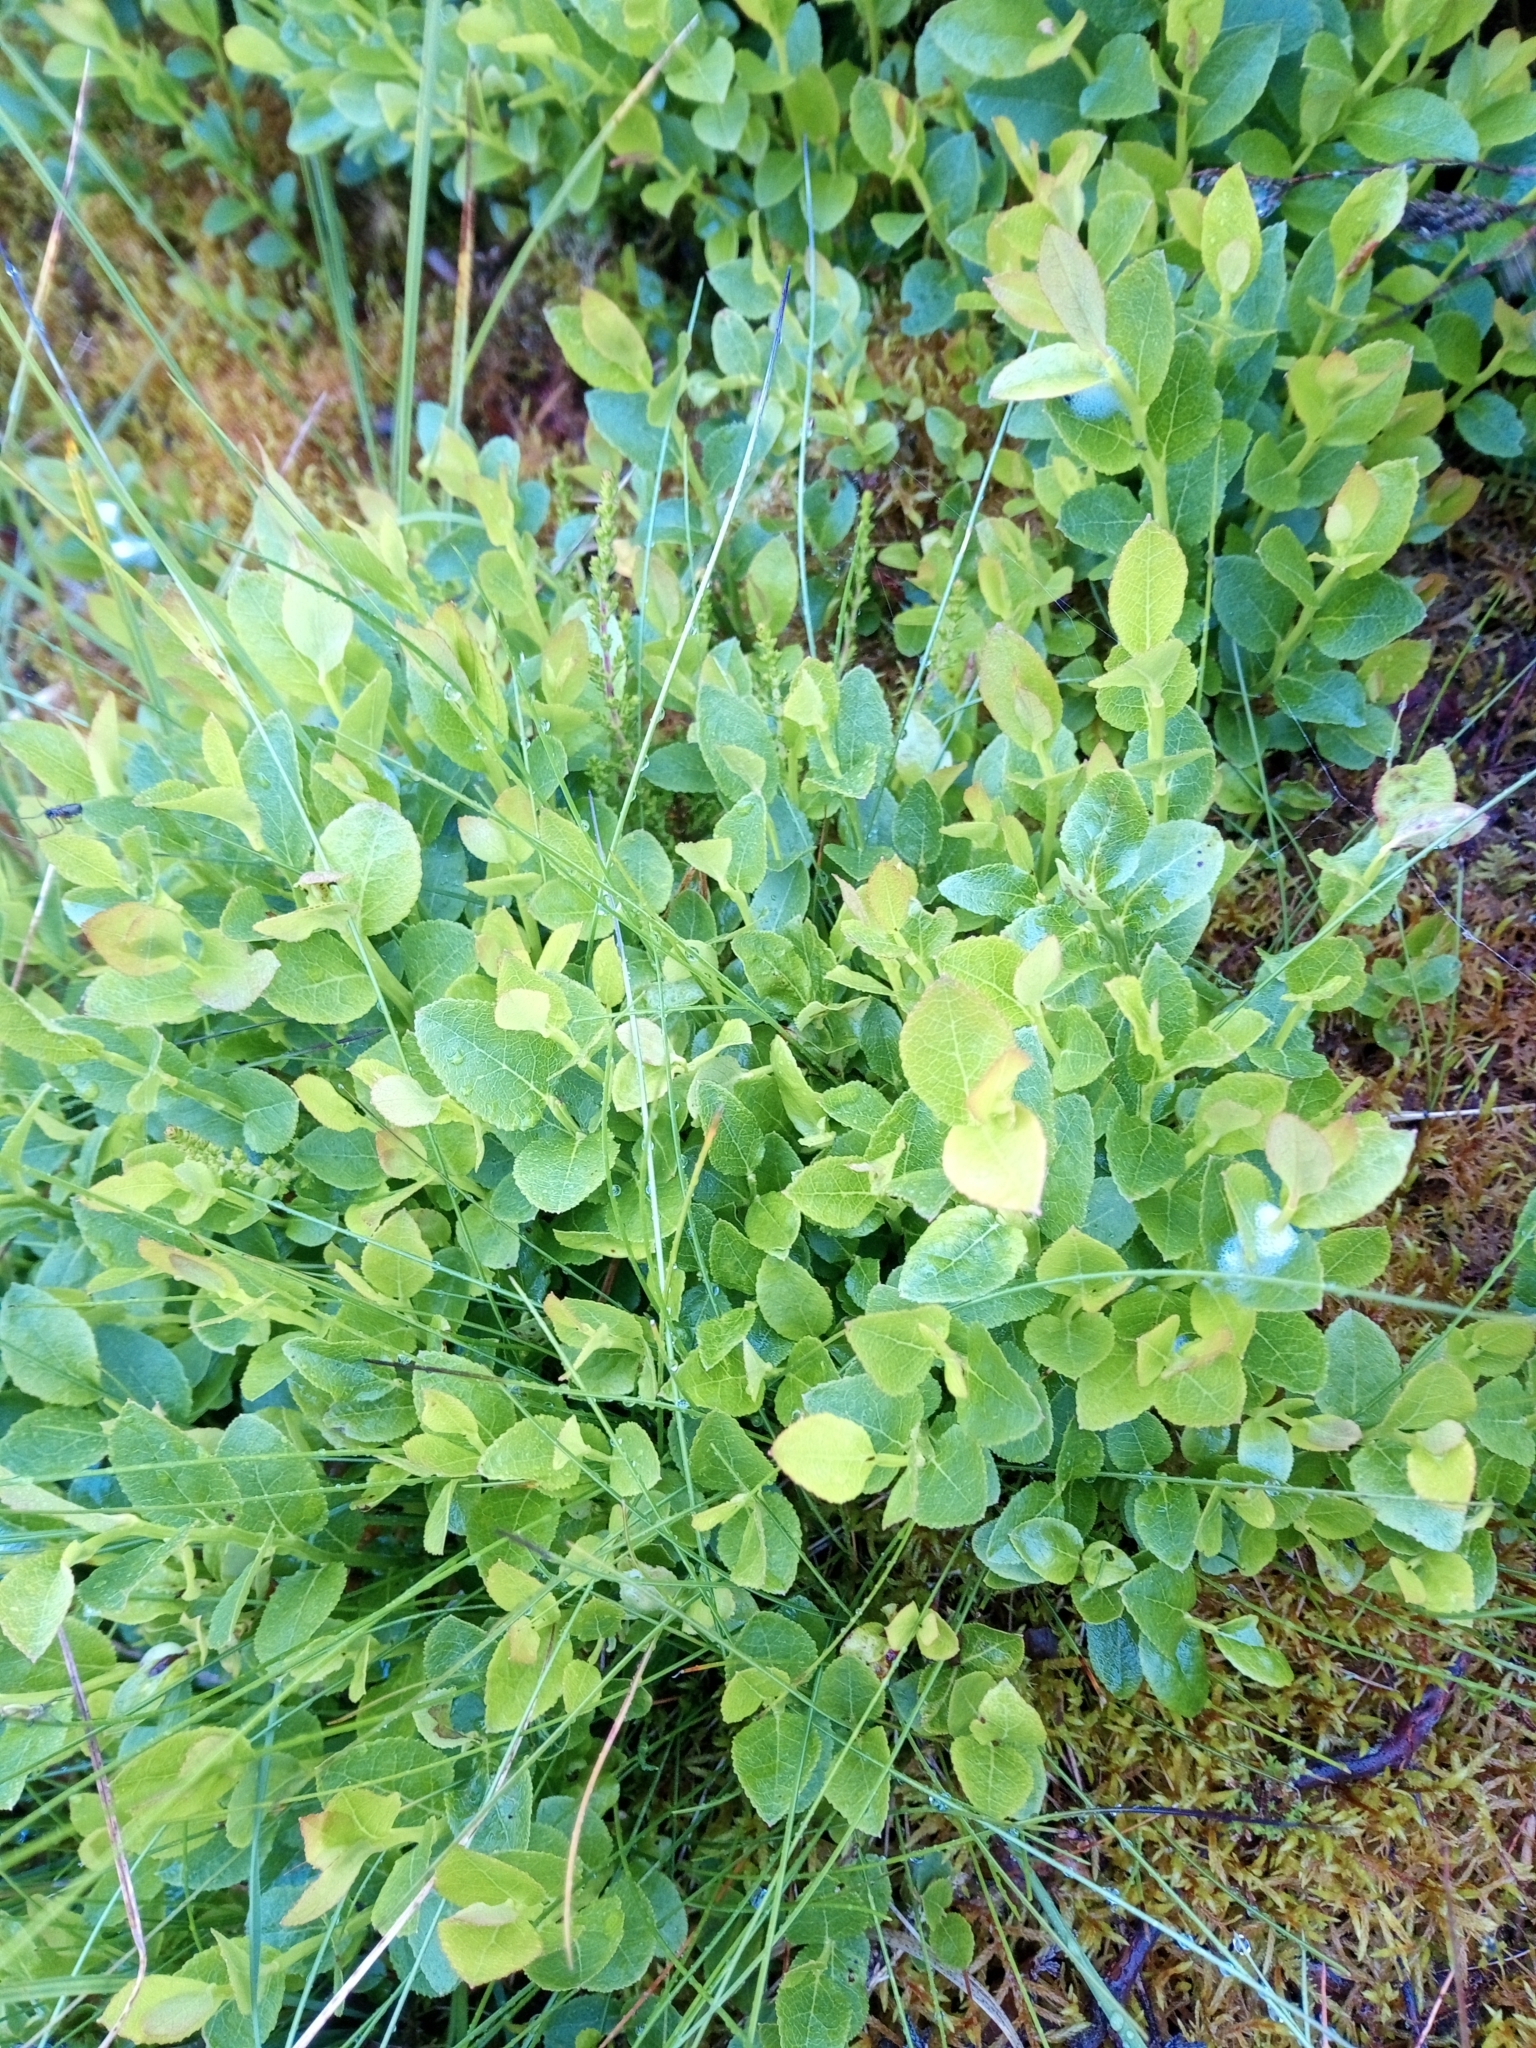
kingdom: Plantae
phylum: Tracheophyta
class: Magnoliopsida
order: Ericales
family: Ericaceae
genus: Vaccinium
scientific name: Vaccinium myrtillus
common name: Bilberry
